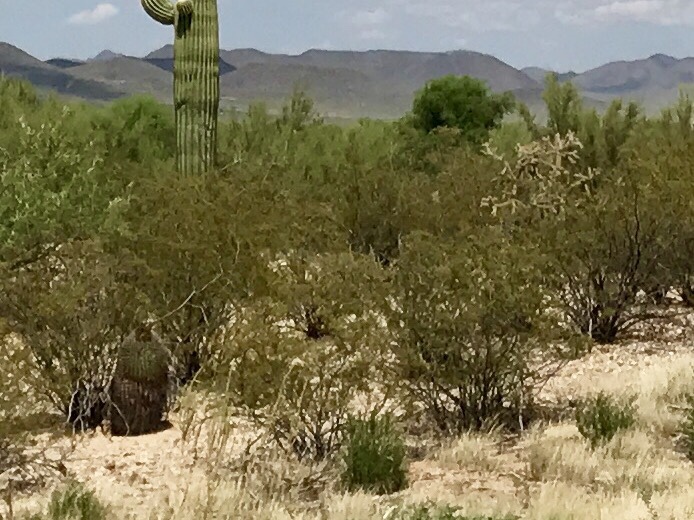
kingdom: Plantae
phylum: Tracheophyta
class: Magnoliopsida
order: Zygophyllales
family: Zygophyllaceae
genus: Larrea
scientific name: Larrea tridentata
